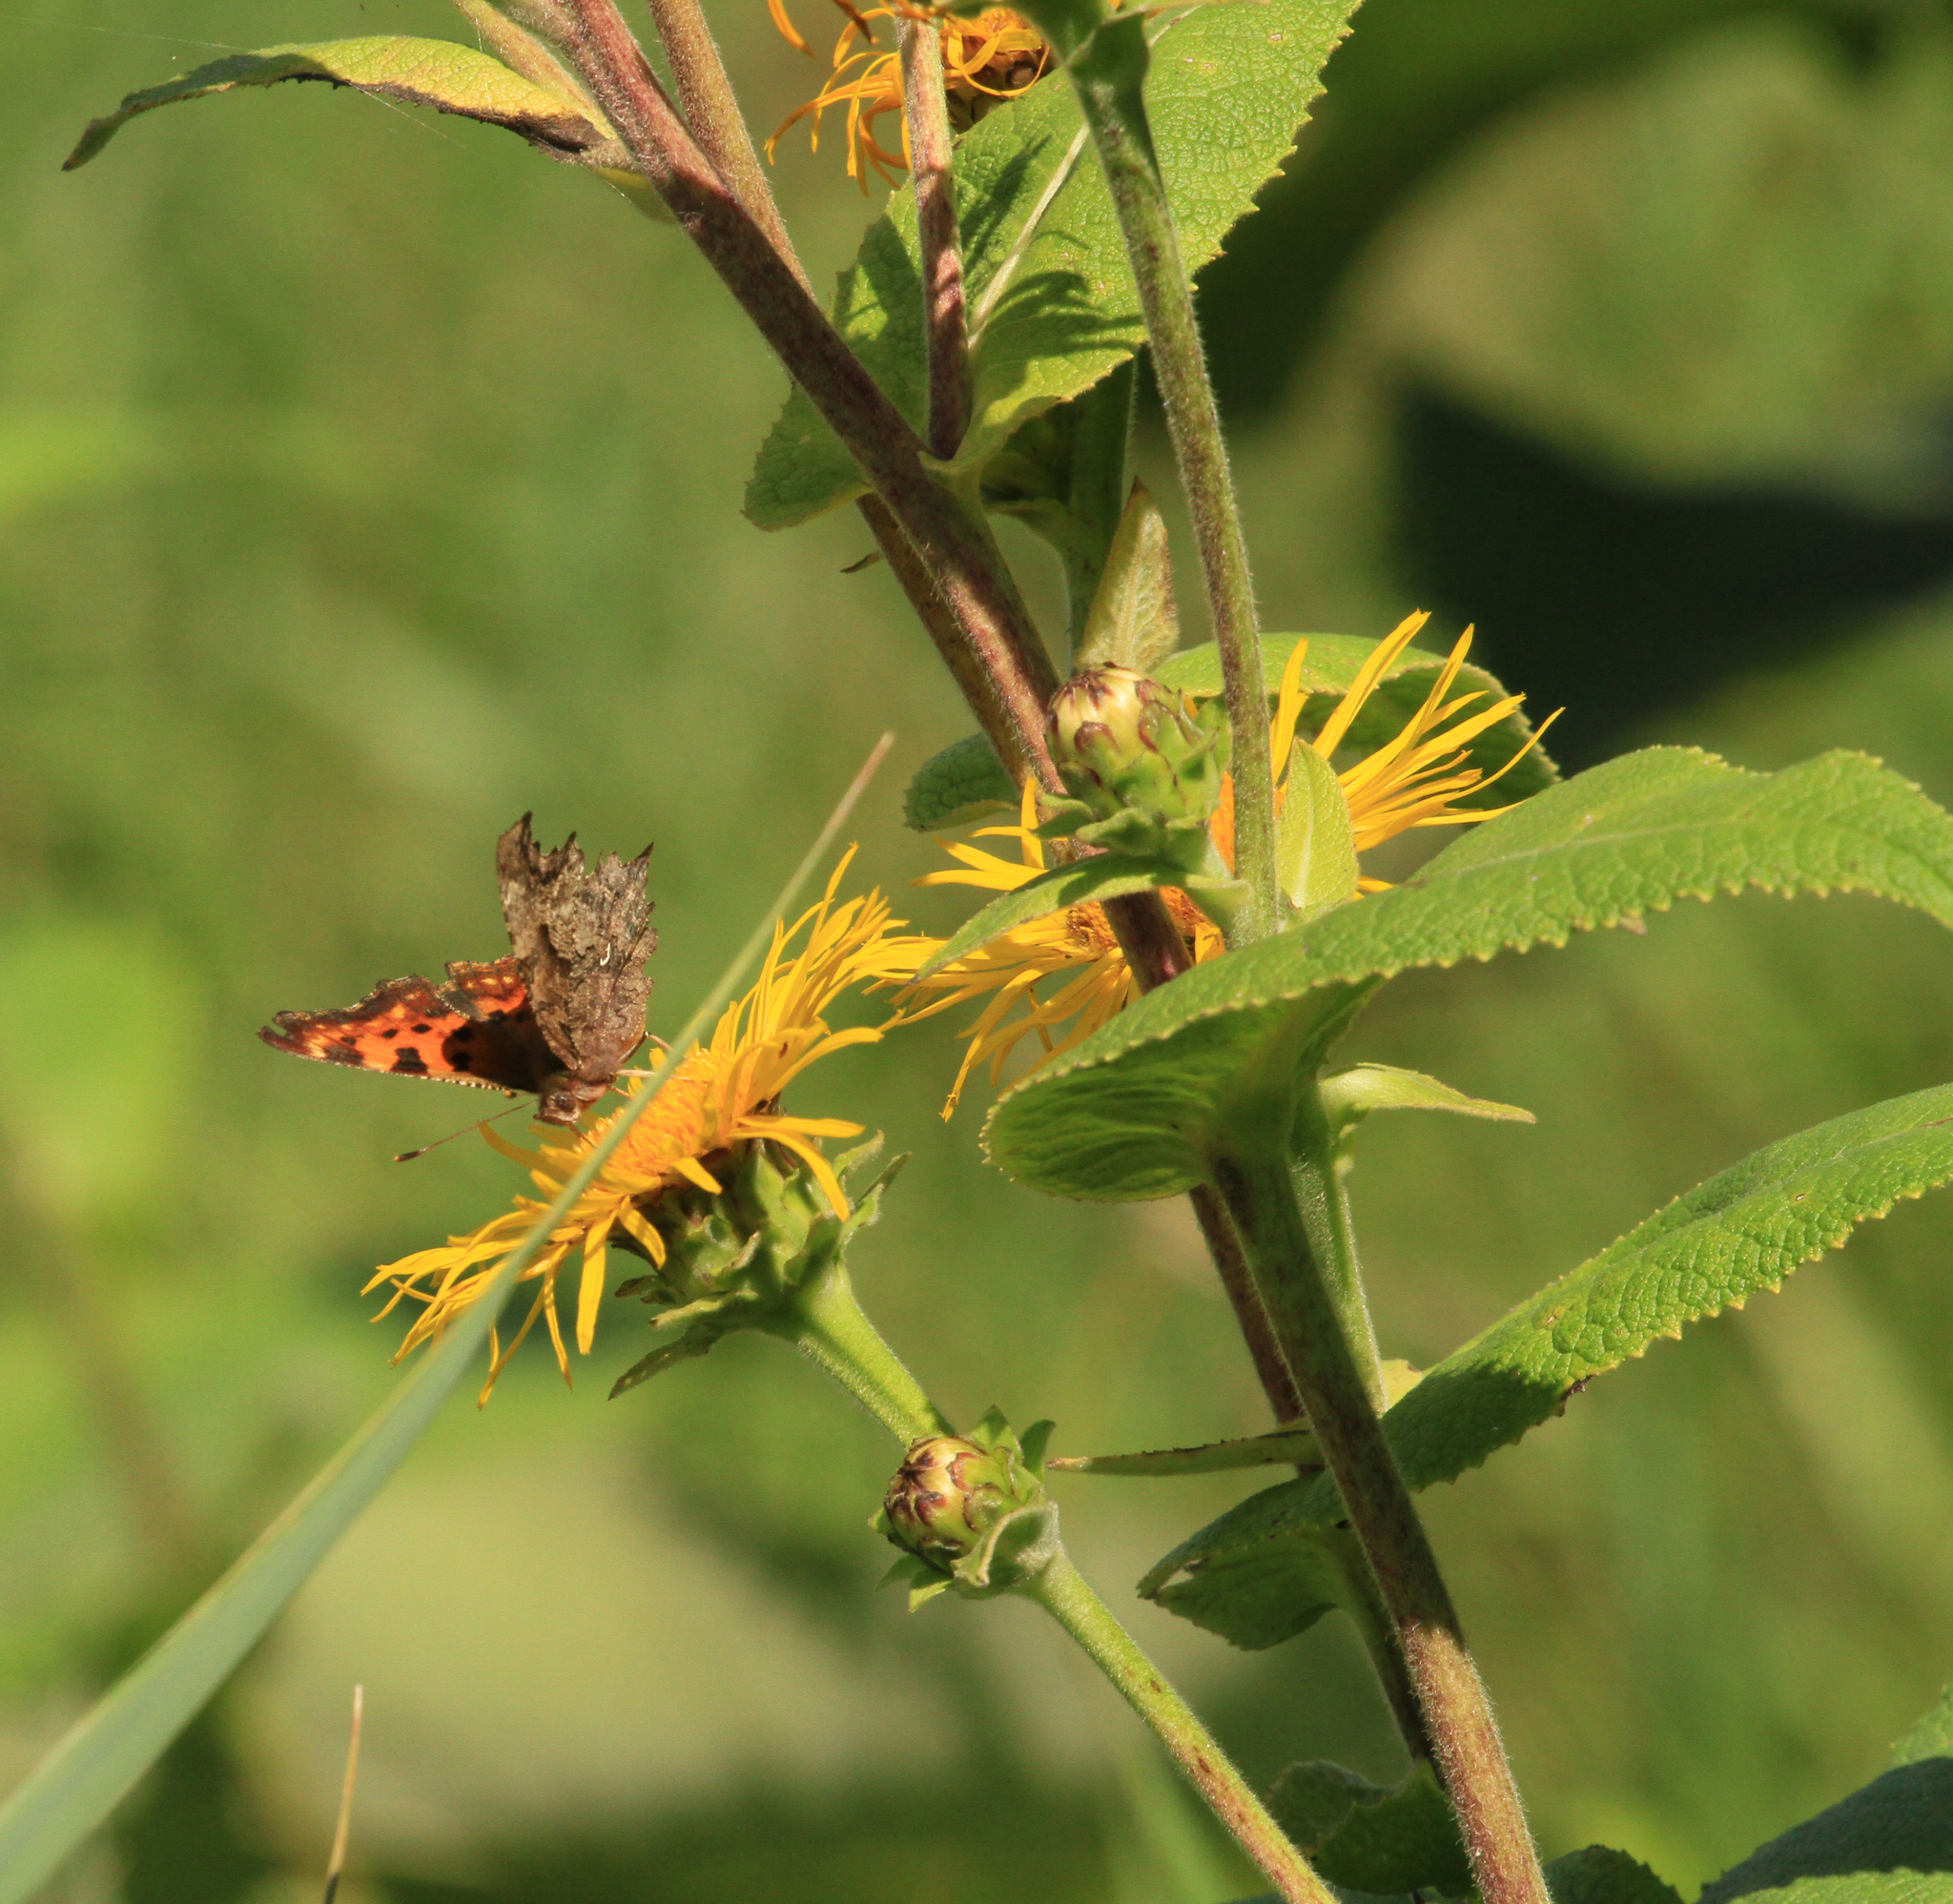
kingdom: Plantae
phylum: Tracheophyta
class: Magnoliopsida
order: Asterales
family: Asteraceae
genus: Inula
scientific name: Inula helenium
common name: Elecampane
